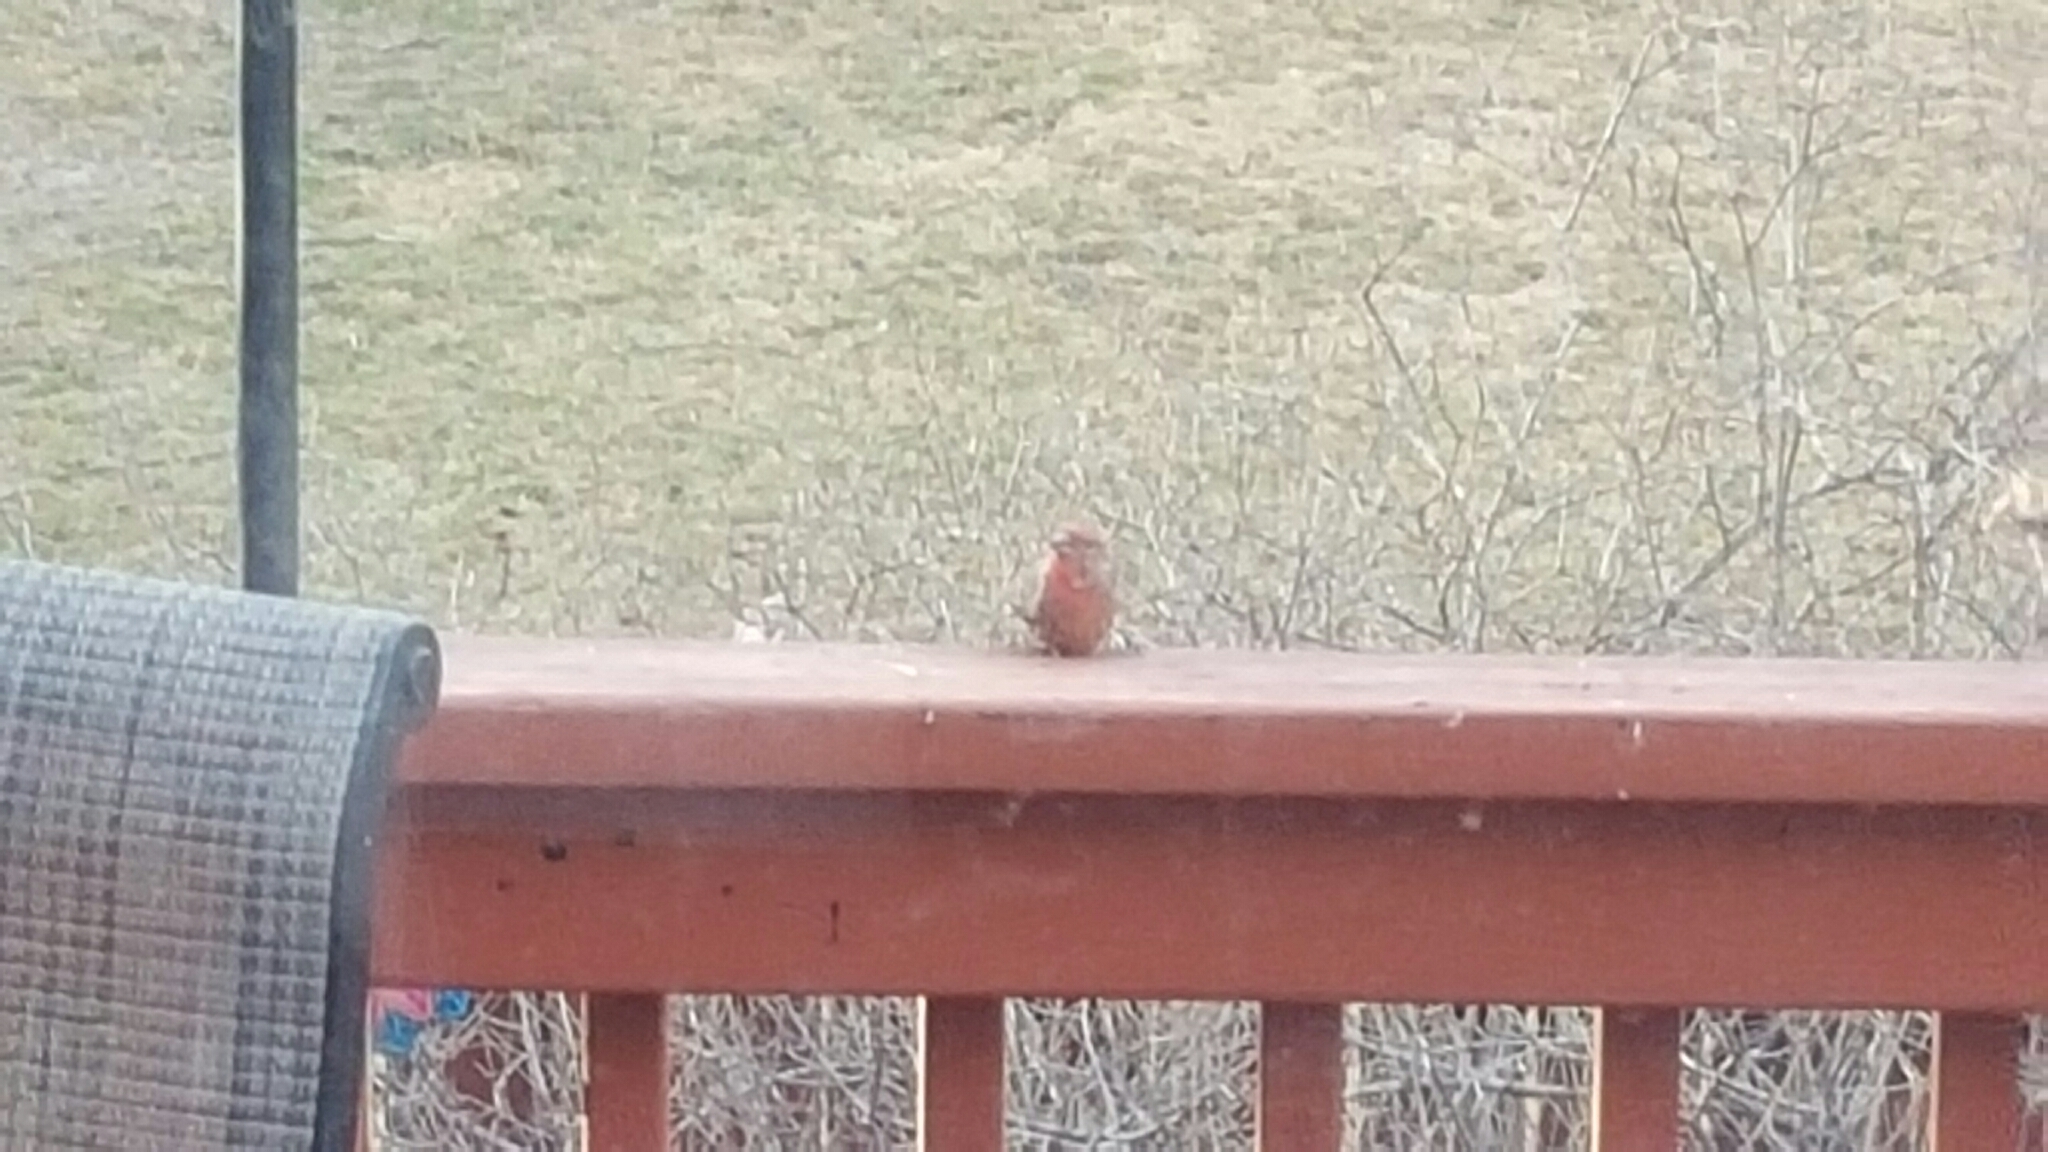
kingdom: Animalia
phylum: Chordata
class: Aves
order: Passeriformes
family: Fringillidae
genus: Haemorhous
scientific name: Haemorhous mexicanus
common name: House finch
